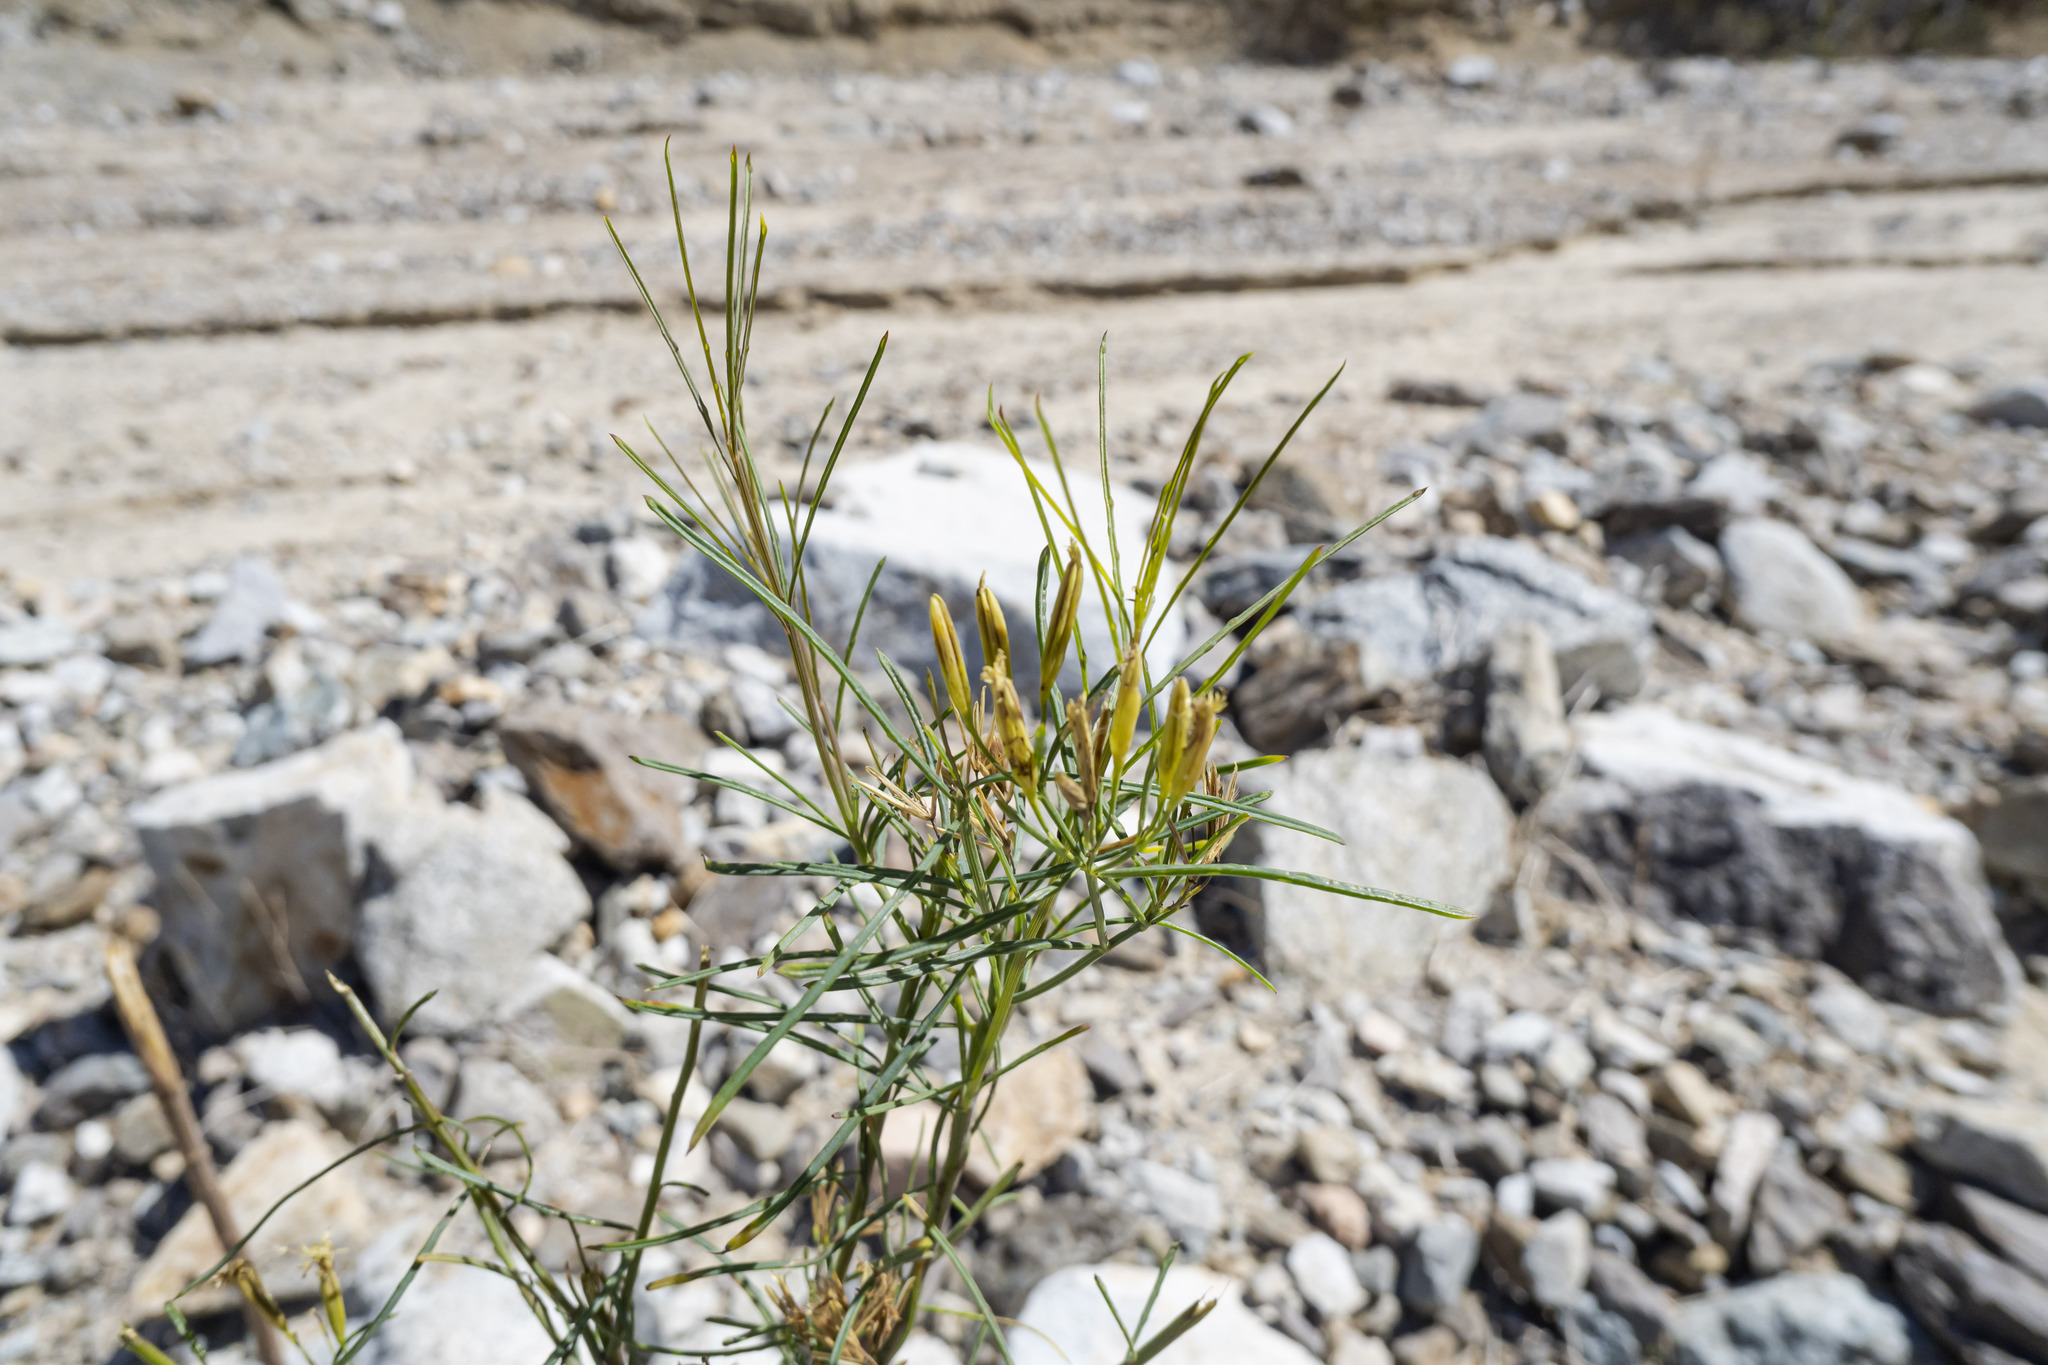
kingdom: Plantae
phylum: Tracheophyta
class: Magnoliopsida
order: Asterales
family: Asteraceae
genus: Porophyllum
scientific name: Porophyllum gracile
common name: Odora
